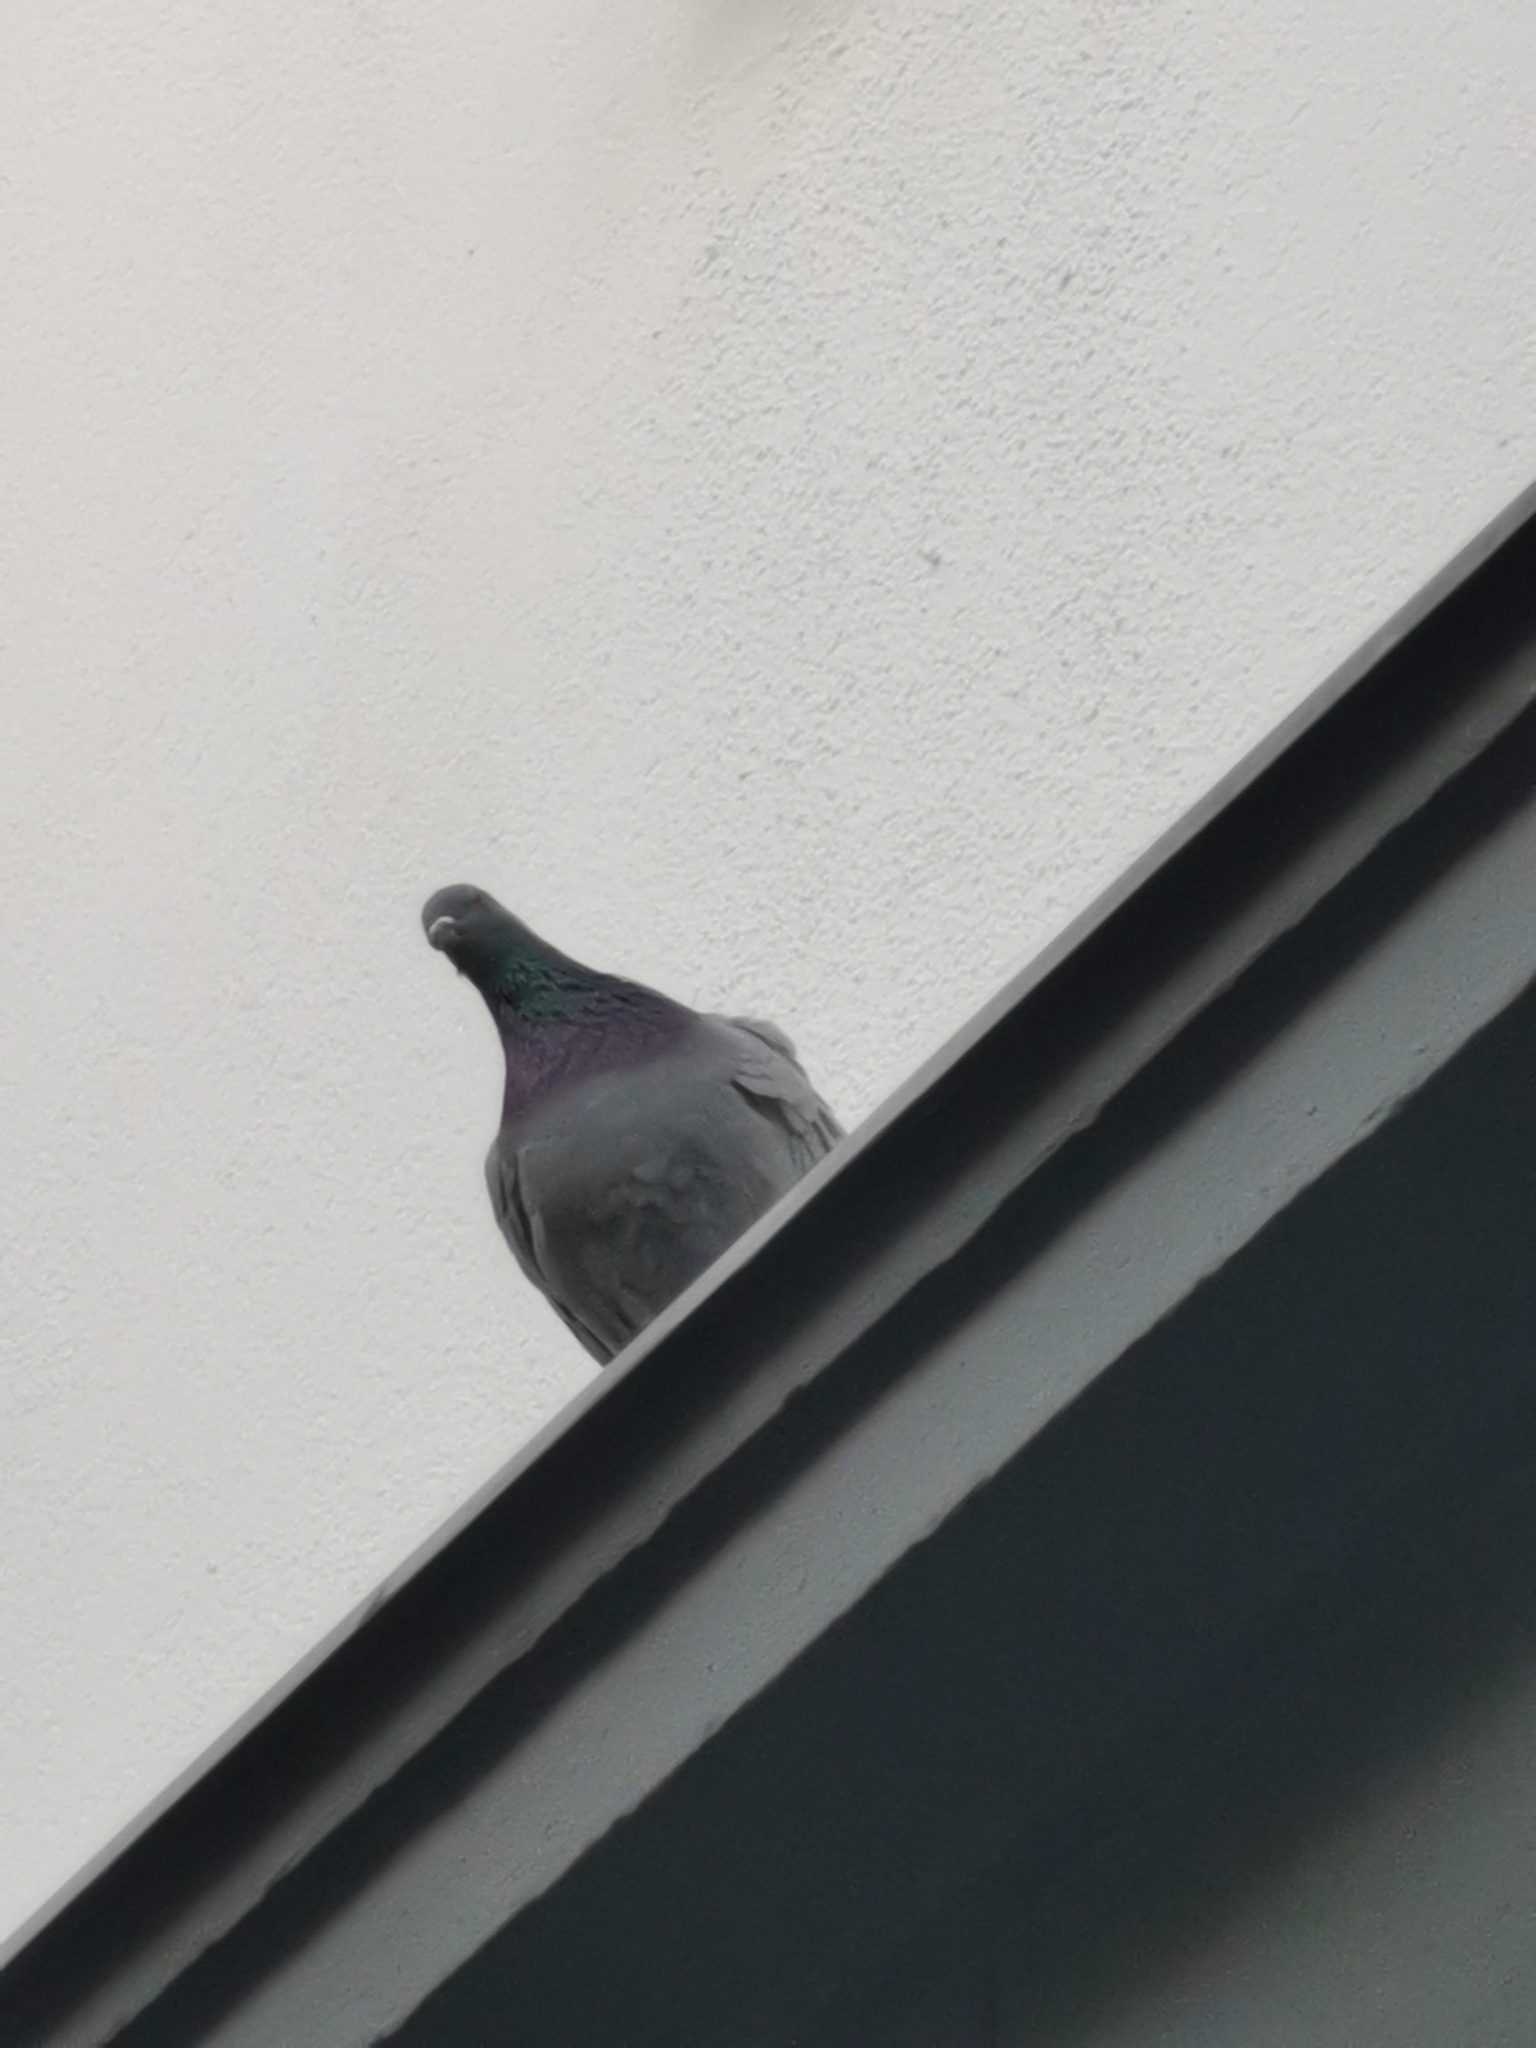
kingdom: Animalia
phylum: Chordata
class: Aves
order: Columbiformes
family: Columbidae
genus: Columba
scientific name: Columba livia
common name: Rock pigeon
